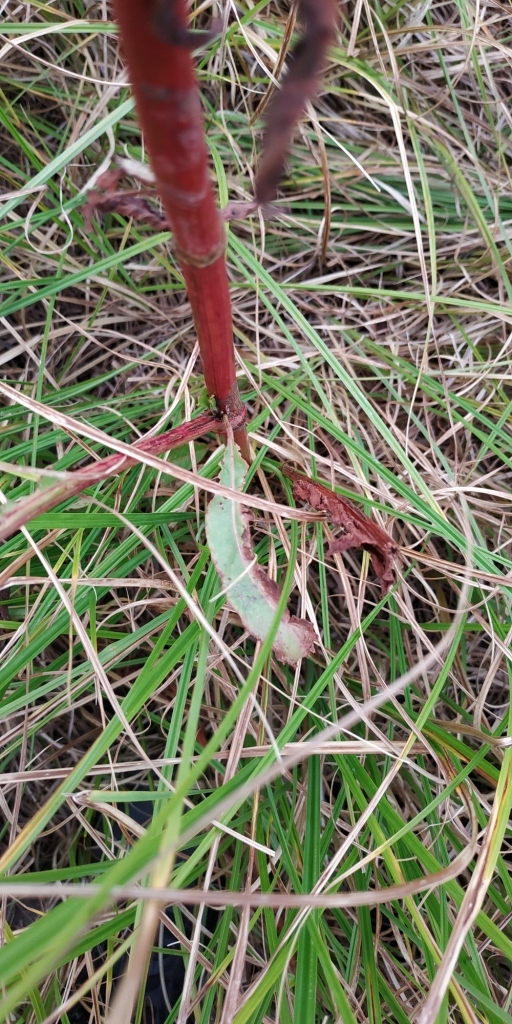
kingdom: Plantae
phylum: Tracheophyta
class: Magnoliopsida
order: Caryophyllales
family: Polygonaceae
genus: Rumex
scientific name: Rumex pseudonatronatus
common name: Field dock
